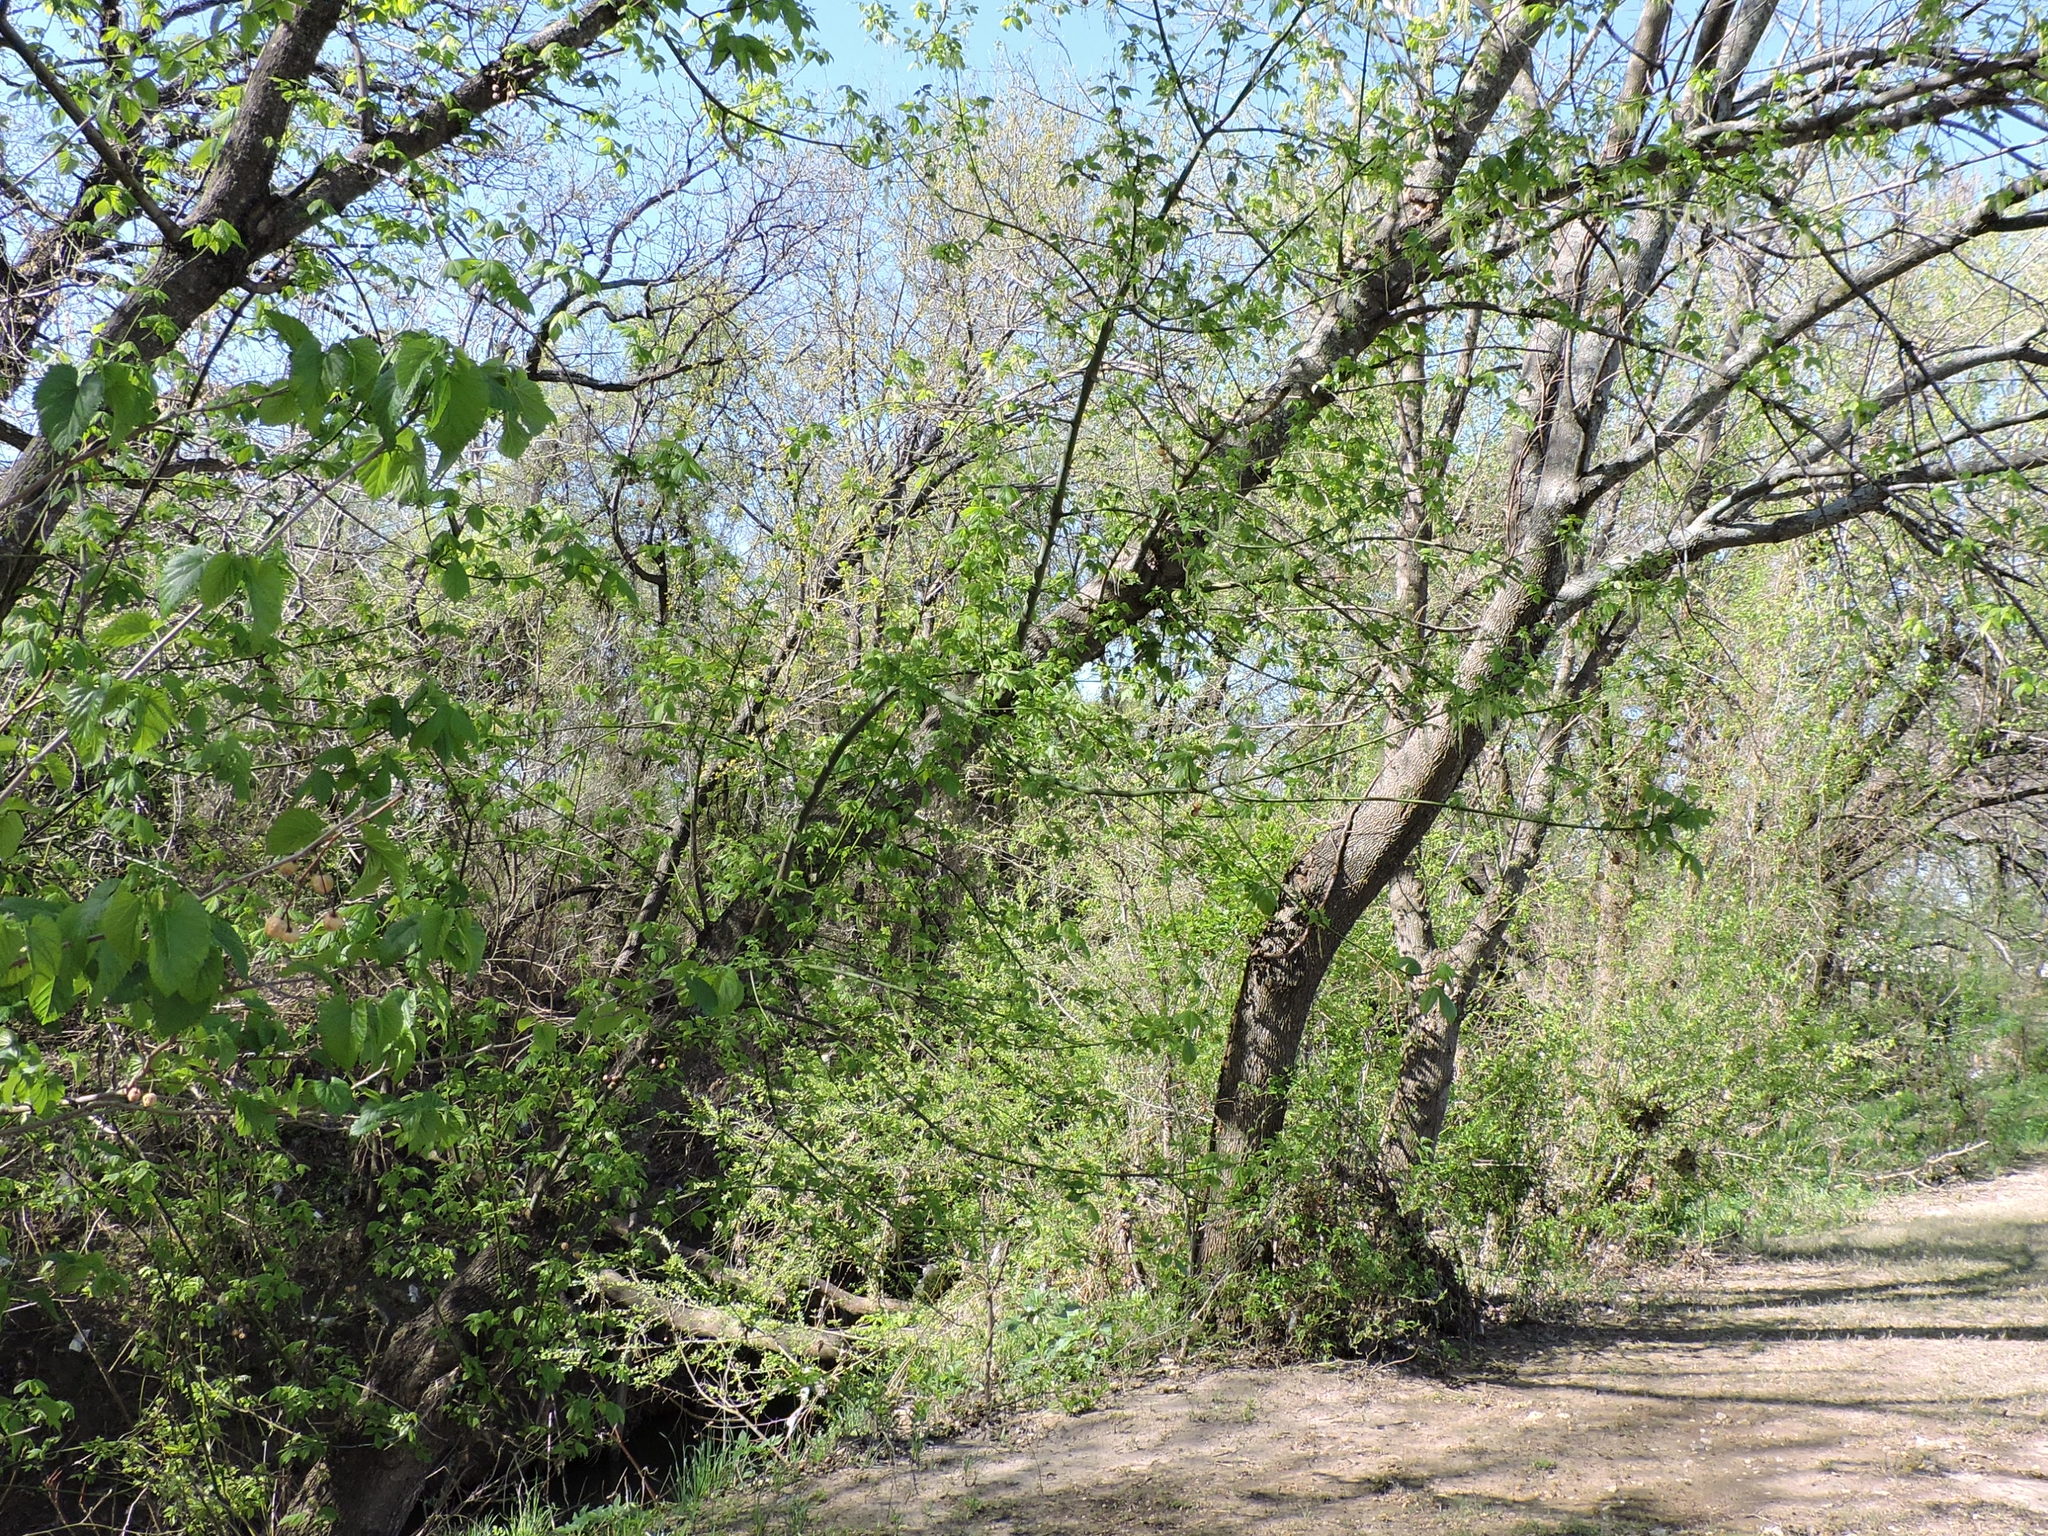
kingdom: Plantae
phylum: Tracheophyta
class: Magnoliopsida
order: Sapindales
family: Sapindaceae
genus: Acer
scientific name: Acer negundo
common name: Ashleaf maple
